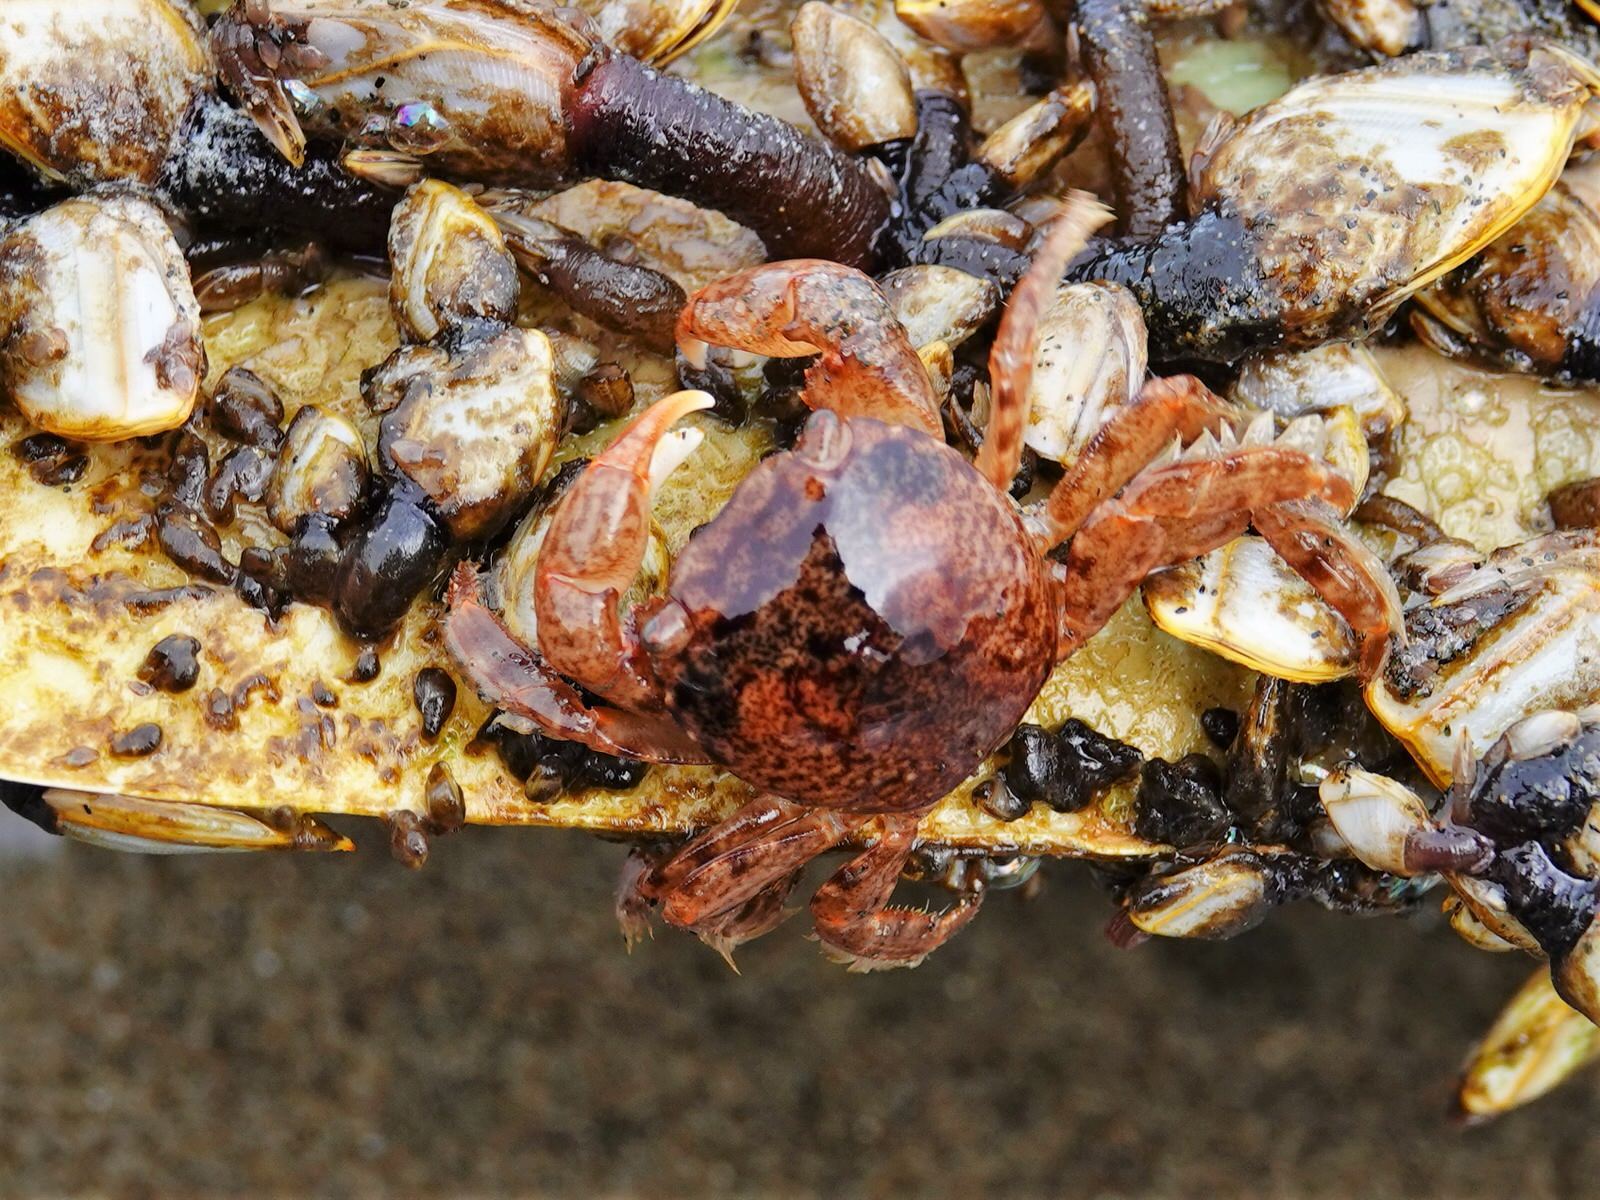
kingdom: Animalia
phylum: Arthropoda
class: Malacostraca
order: Decapoda
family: Grapsidae
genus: Planes
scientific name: Planes minutus
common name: Gulf weed crab
